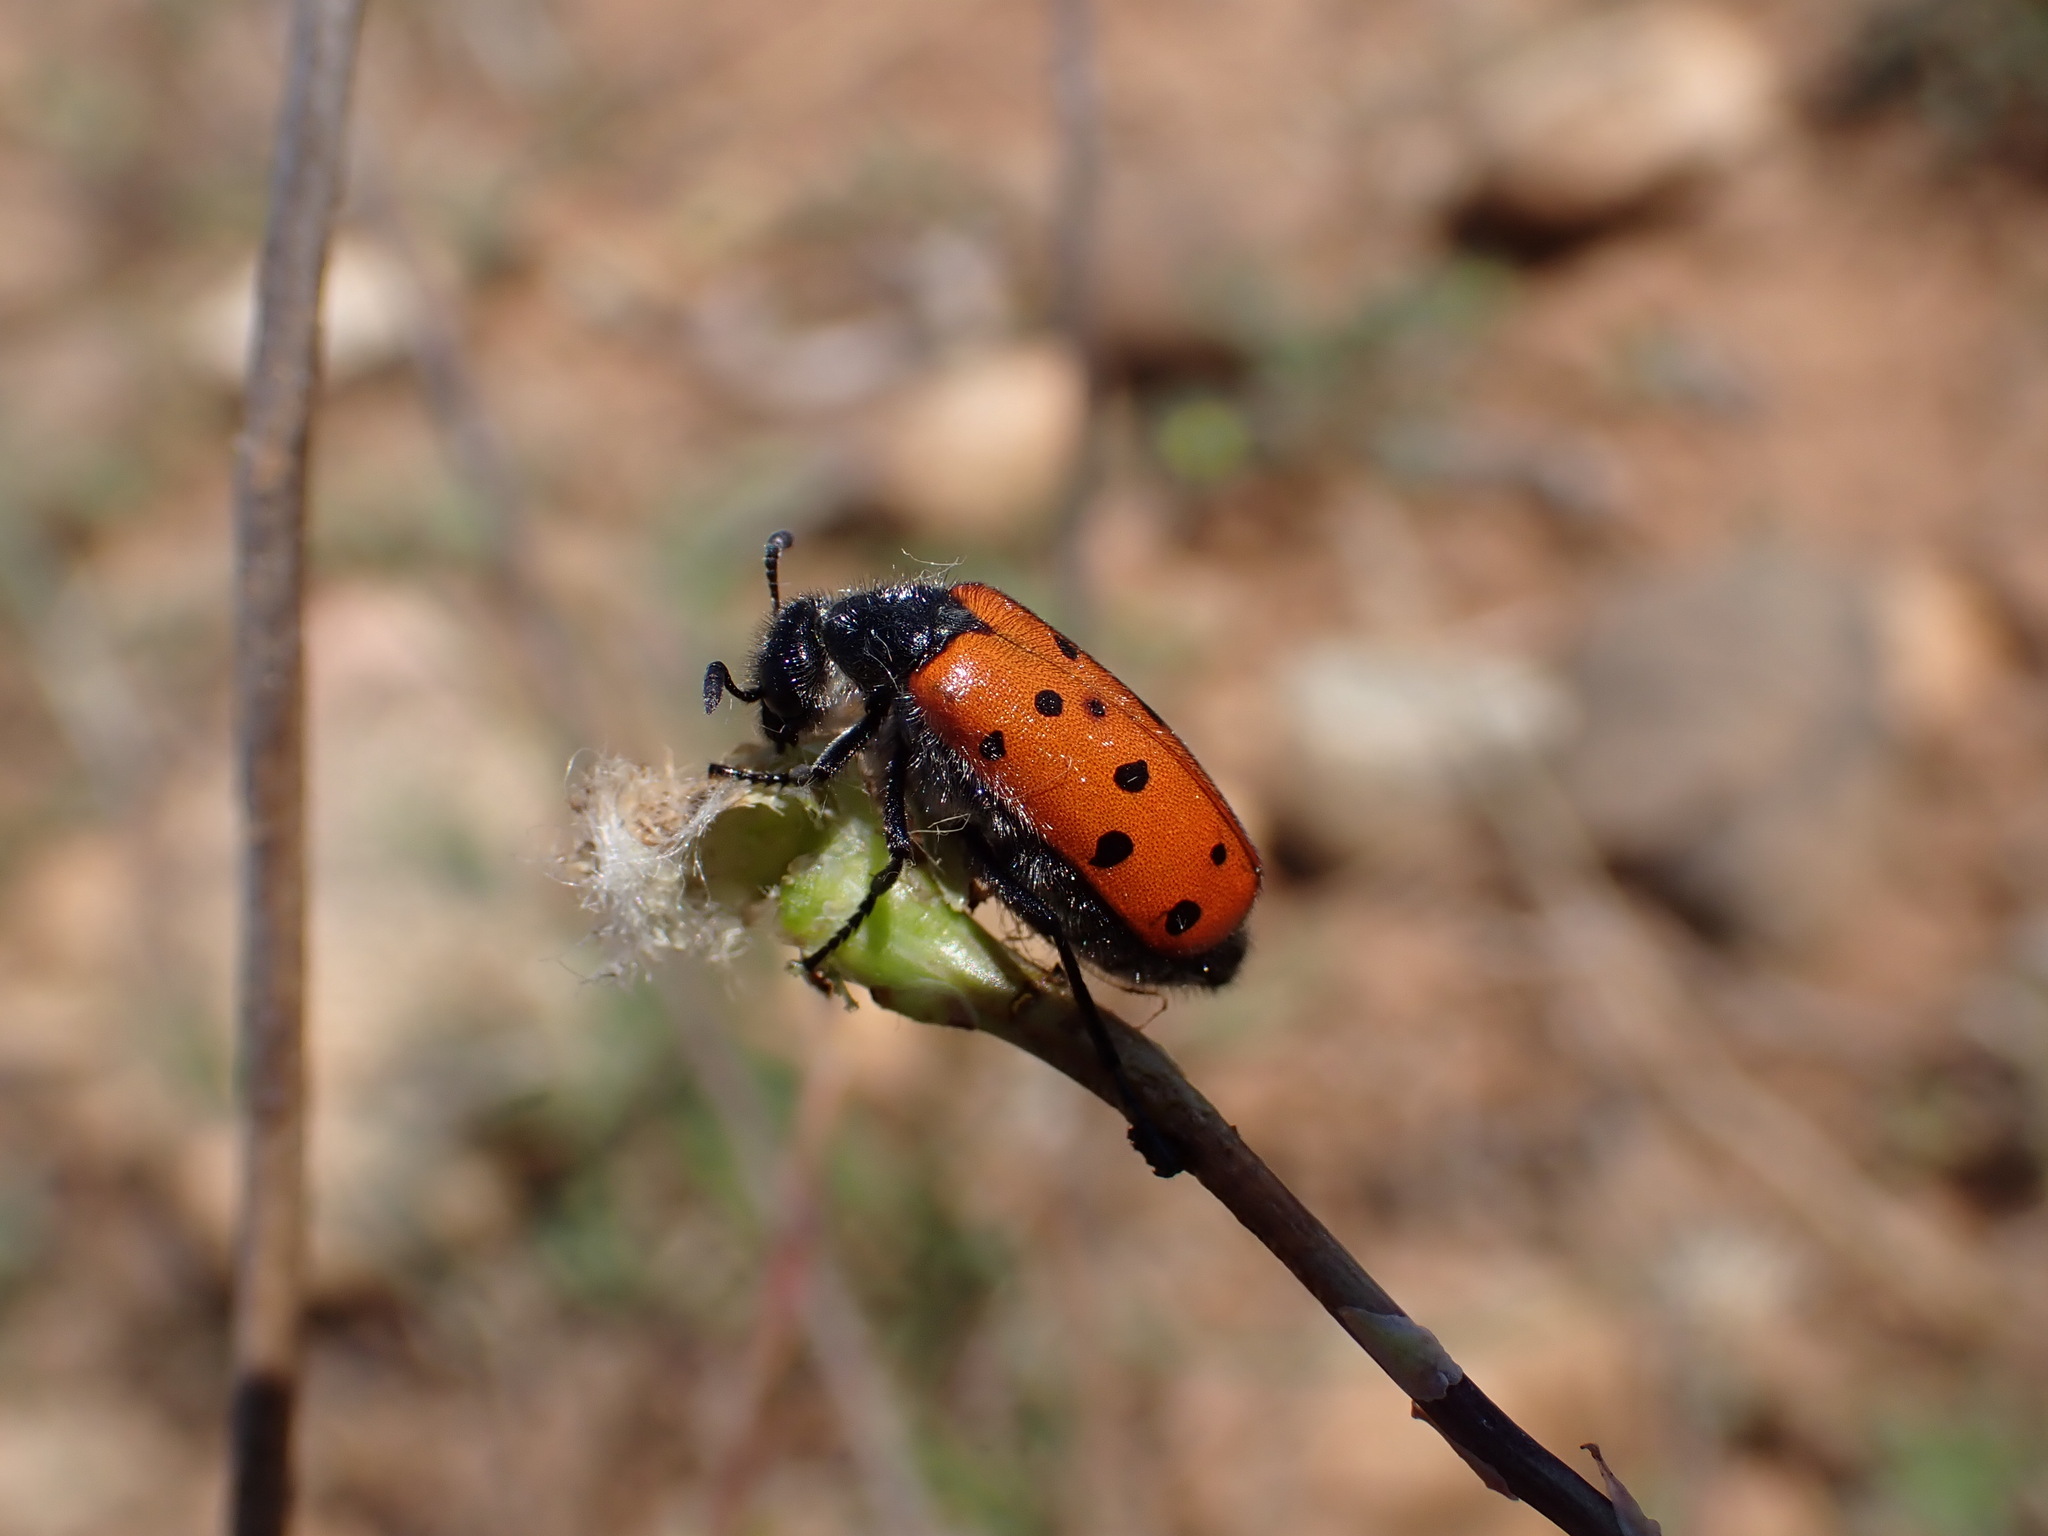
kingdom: Animalia
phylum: Arthropoda
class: Insecta
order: Coleoptera
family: Meloidae
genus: Hycleus
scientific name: Hycleus duodecimpunctatus
